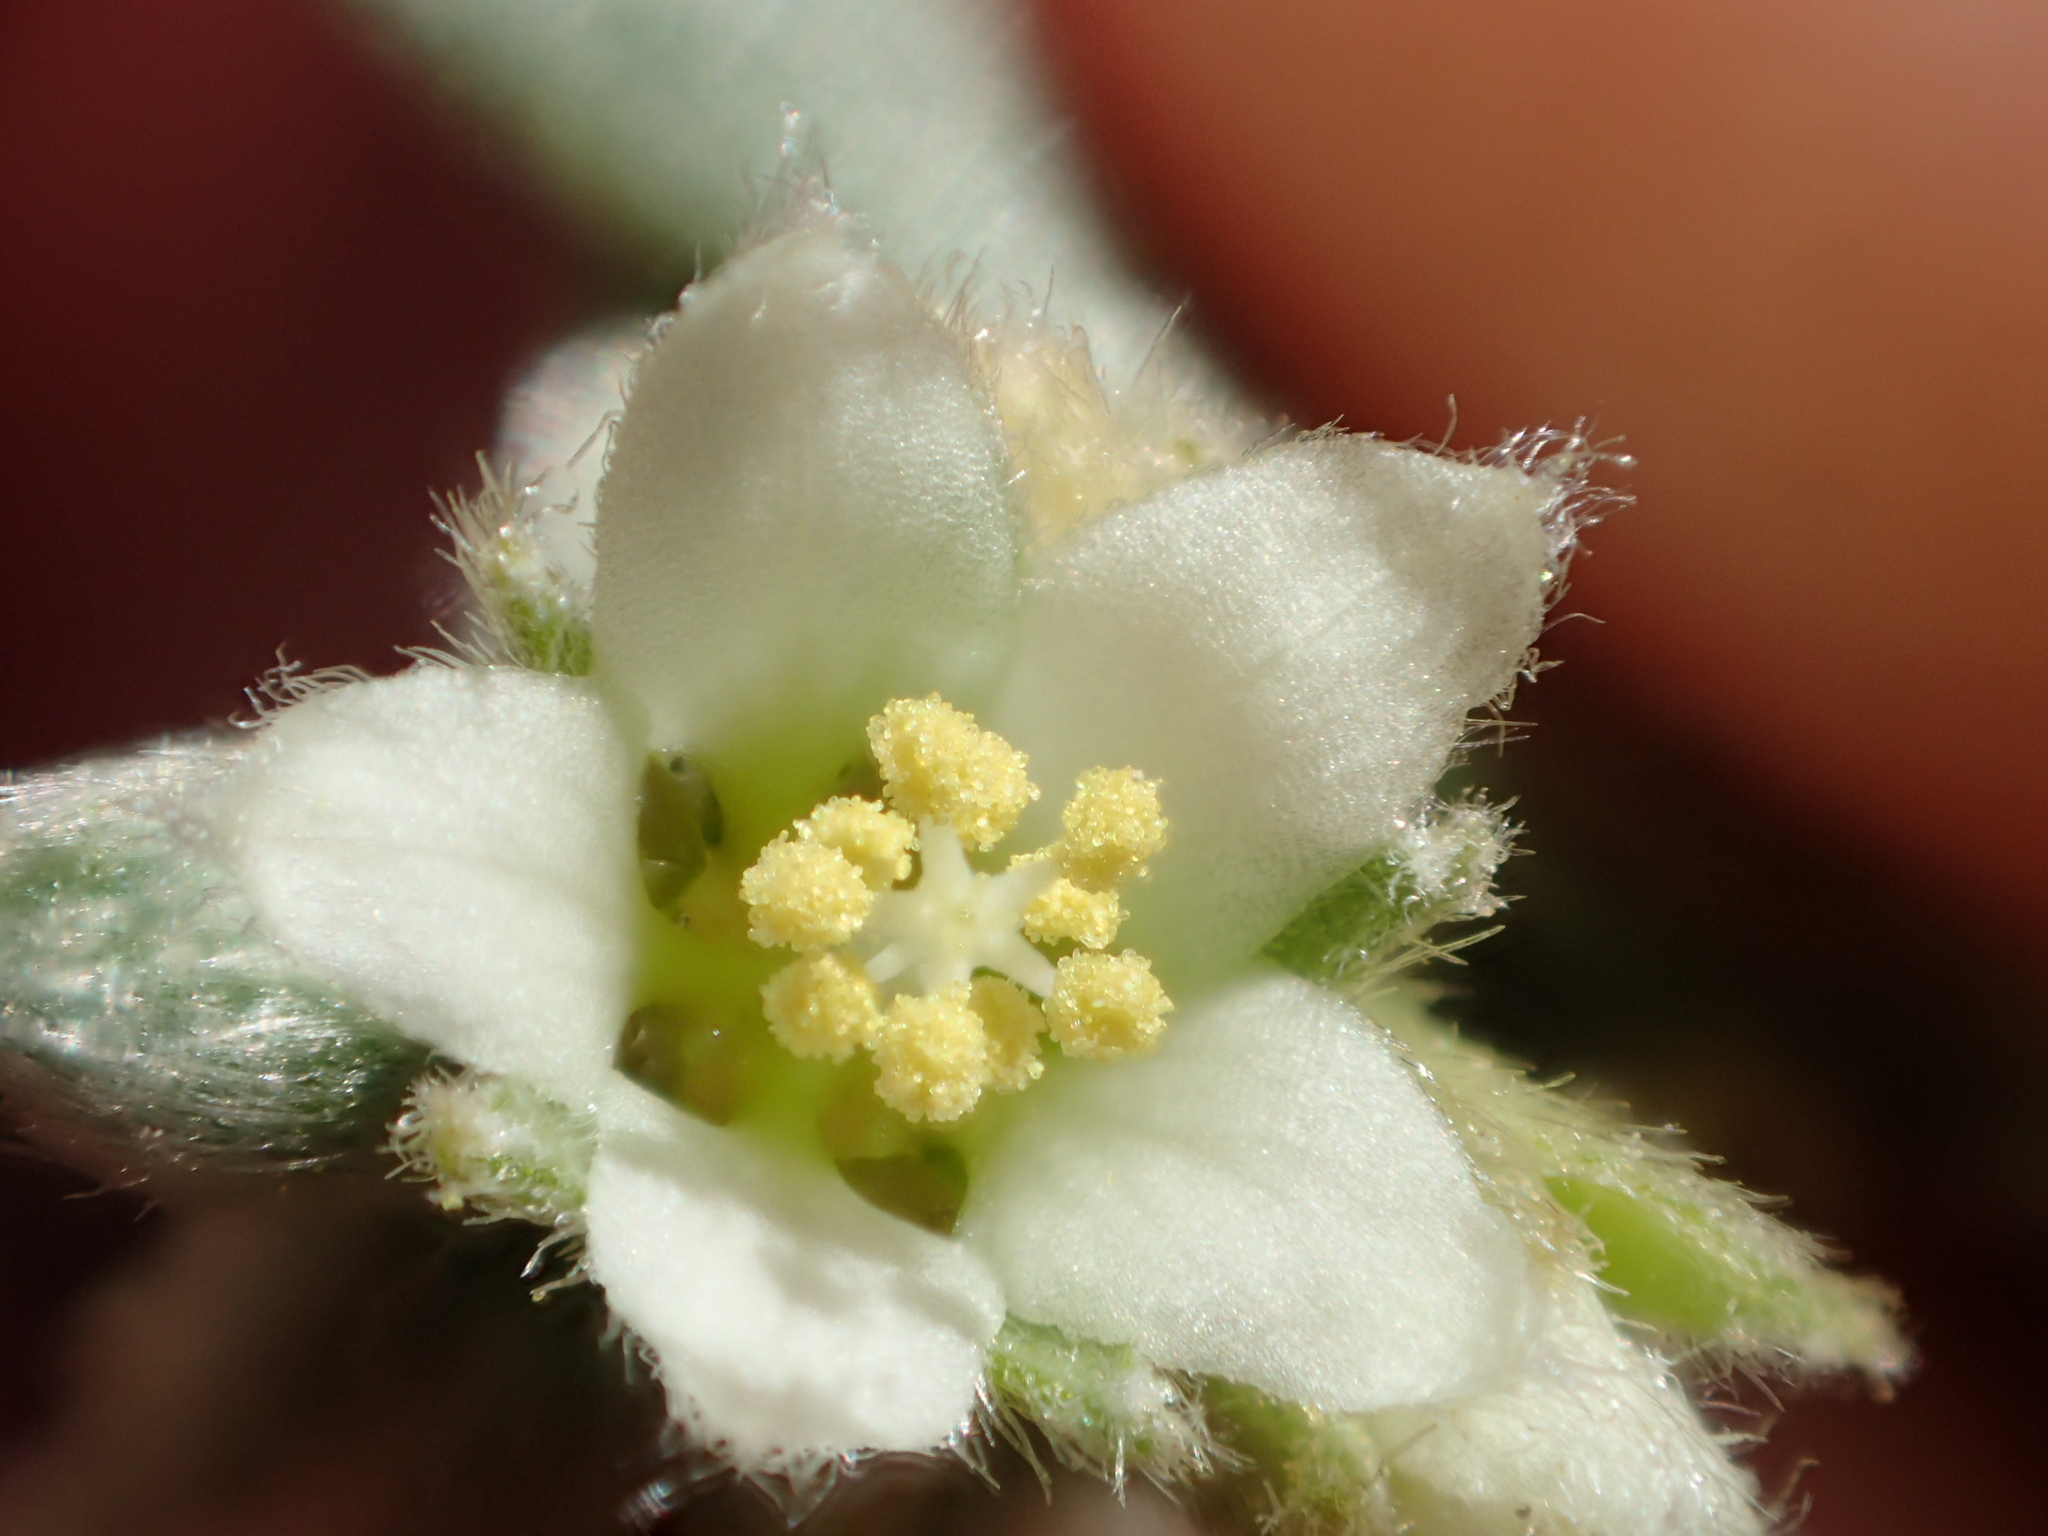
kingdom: Plantae
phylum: Tracheophyta
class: Magnoliopsida
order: Malpighiales
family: Euphorbiaceae
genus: Ditaxis
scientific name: Ditaxis lanceolata
